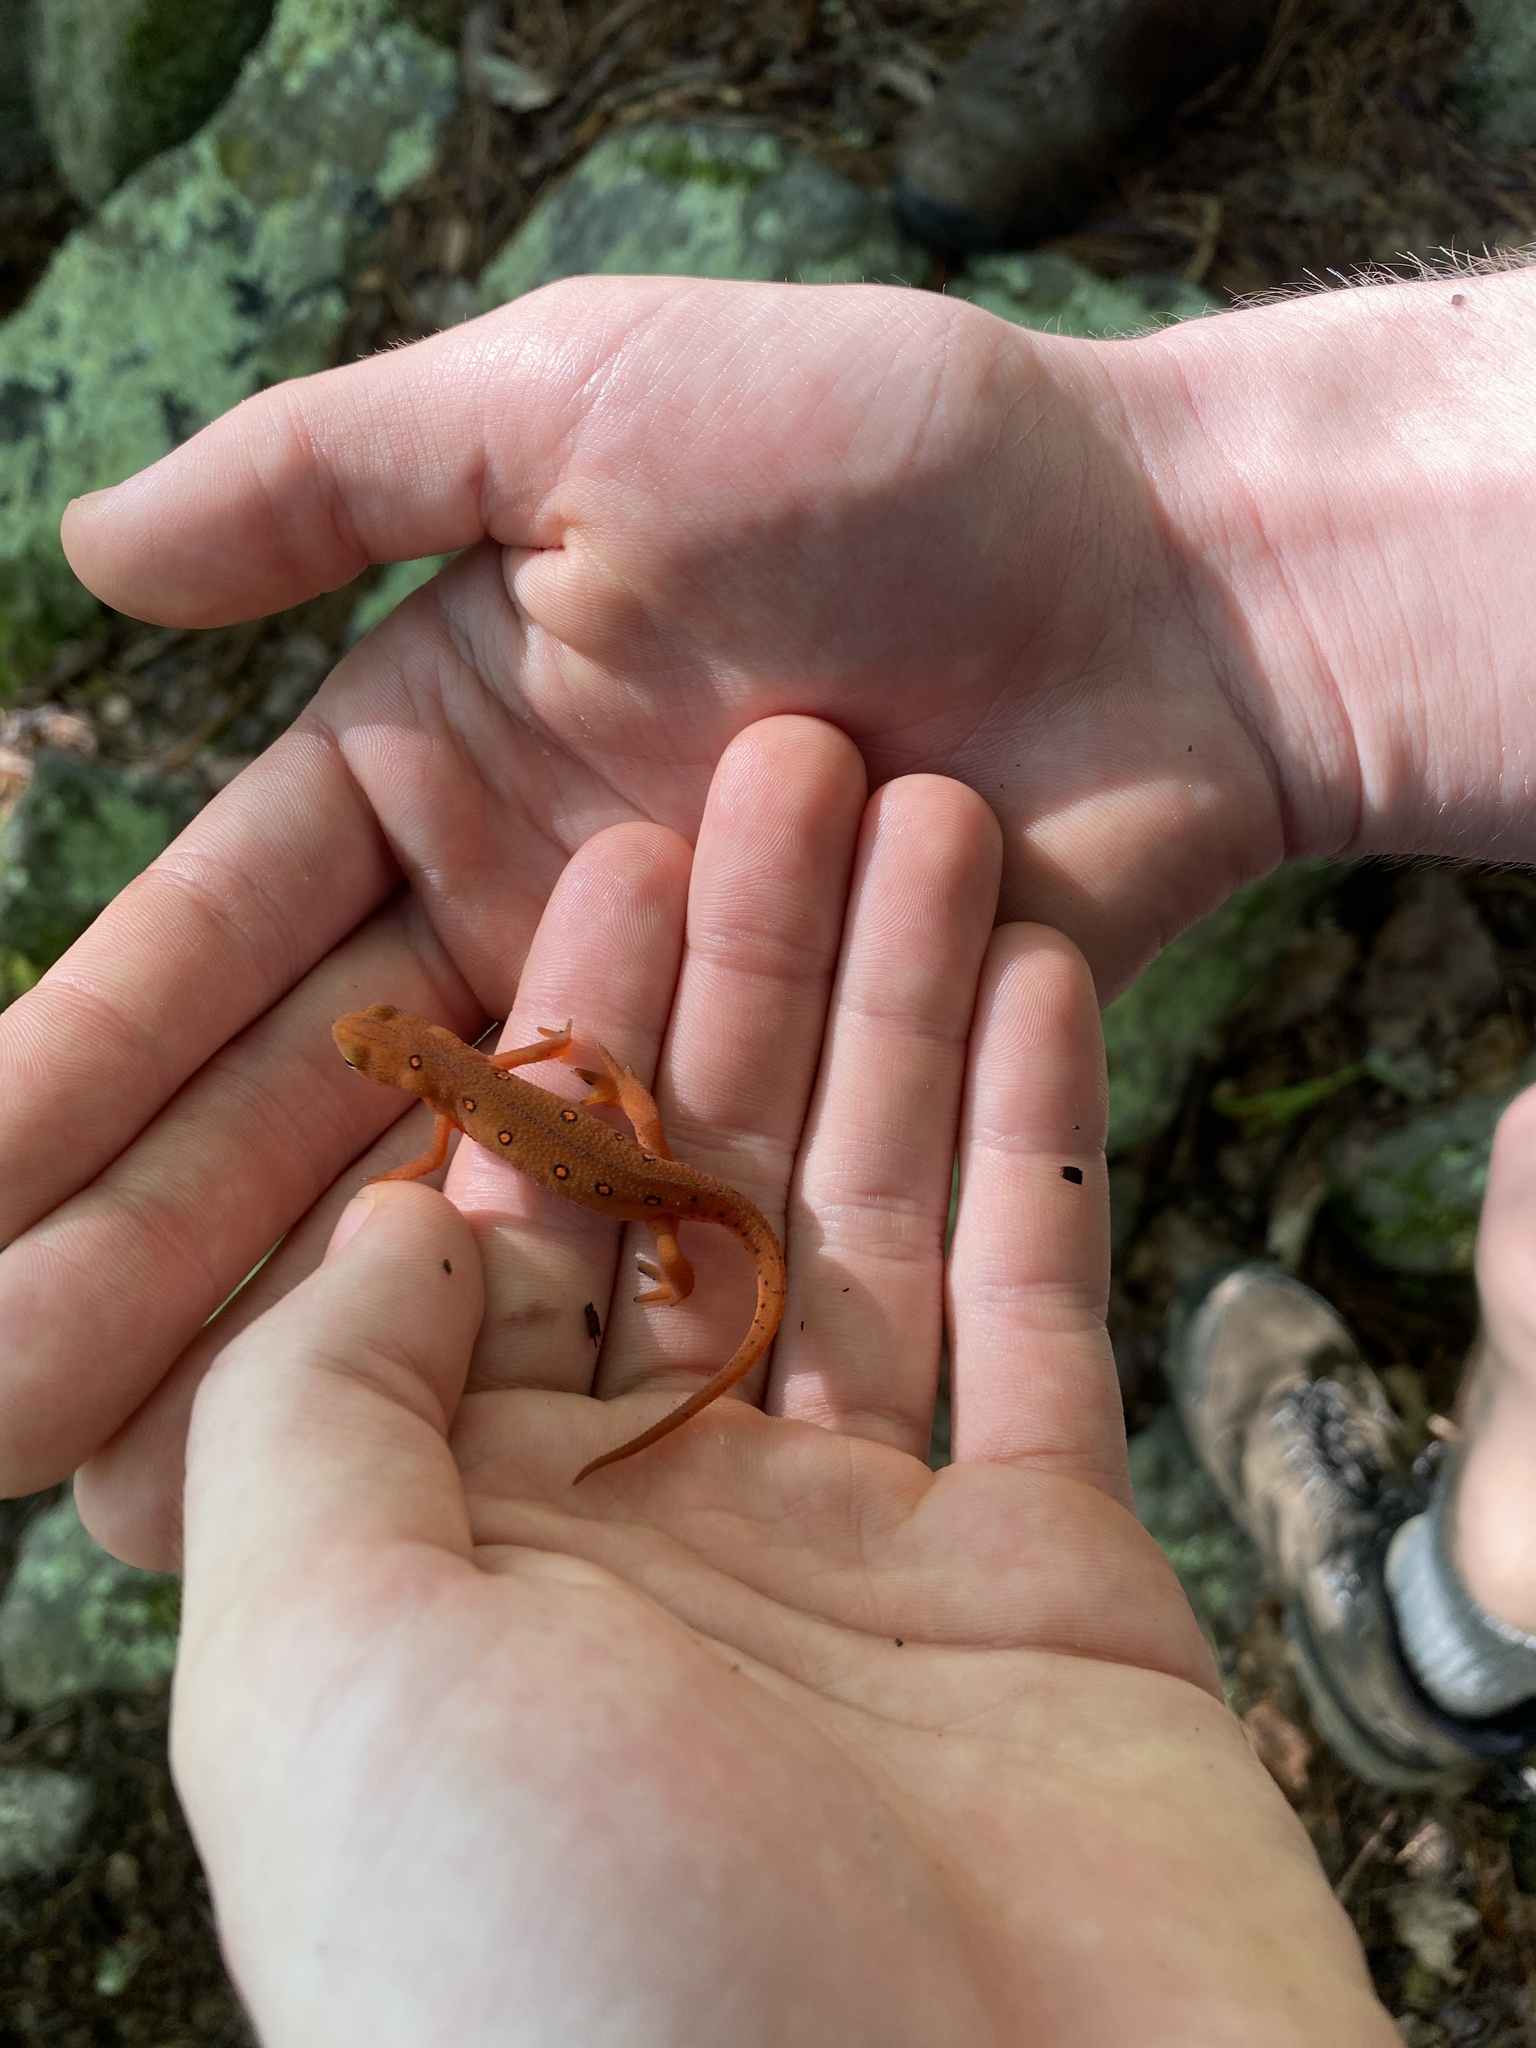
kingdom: Animalia
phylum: Chordata
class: Amphibia
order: Caudata
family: Salamandridae
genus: Notophthalmus
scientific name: Notophthalmus viridescens
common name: Eastern newt
